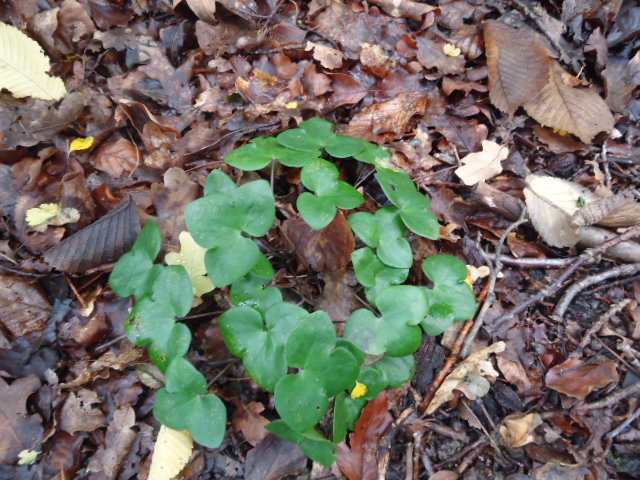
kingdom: Plantae
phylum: Tracheophyta
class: Magnoliopsida
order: Ranunculales
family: Ranunculaceae
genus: Hepatica
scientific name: Hepatica nobilis
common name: Liverleaf
